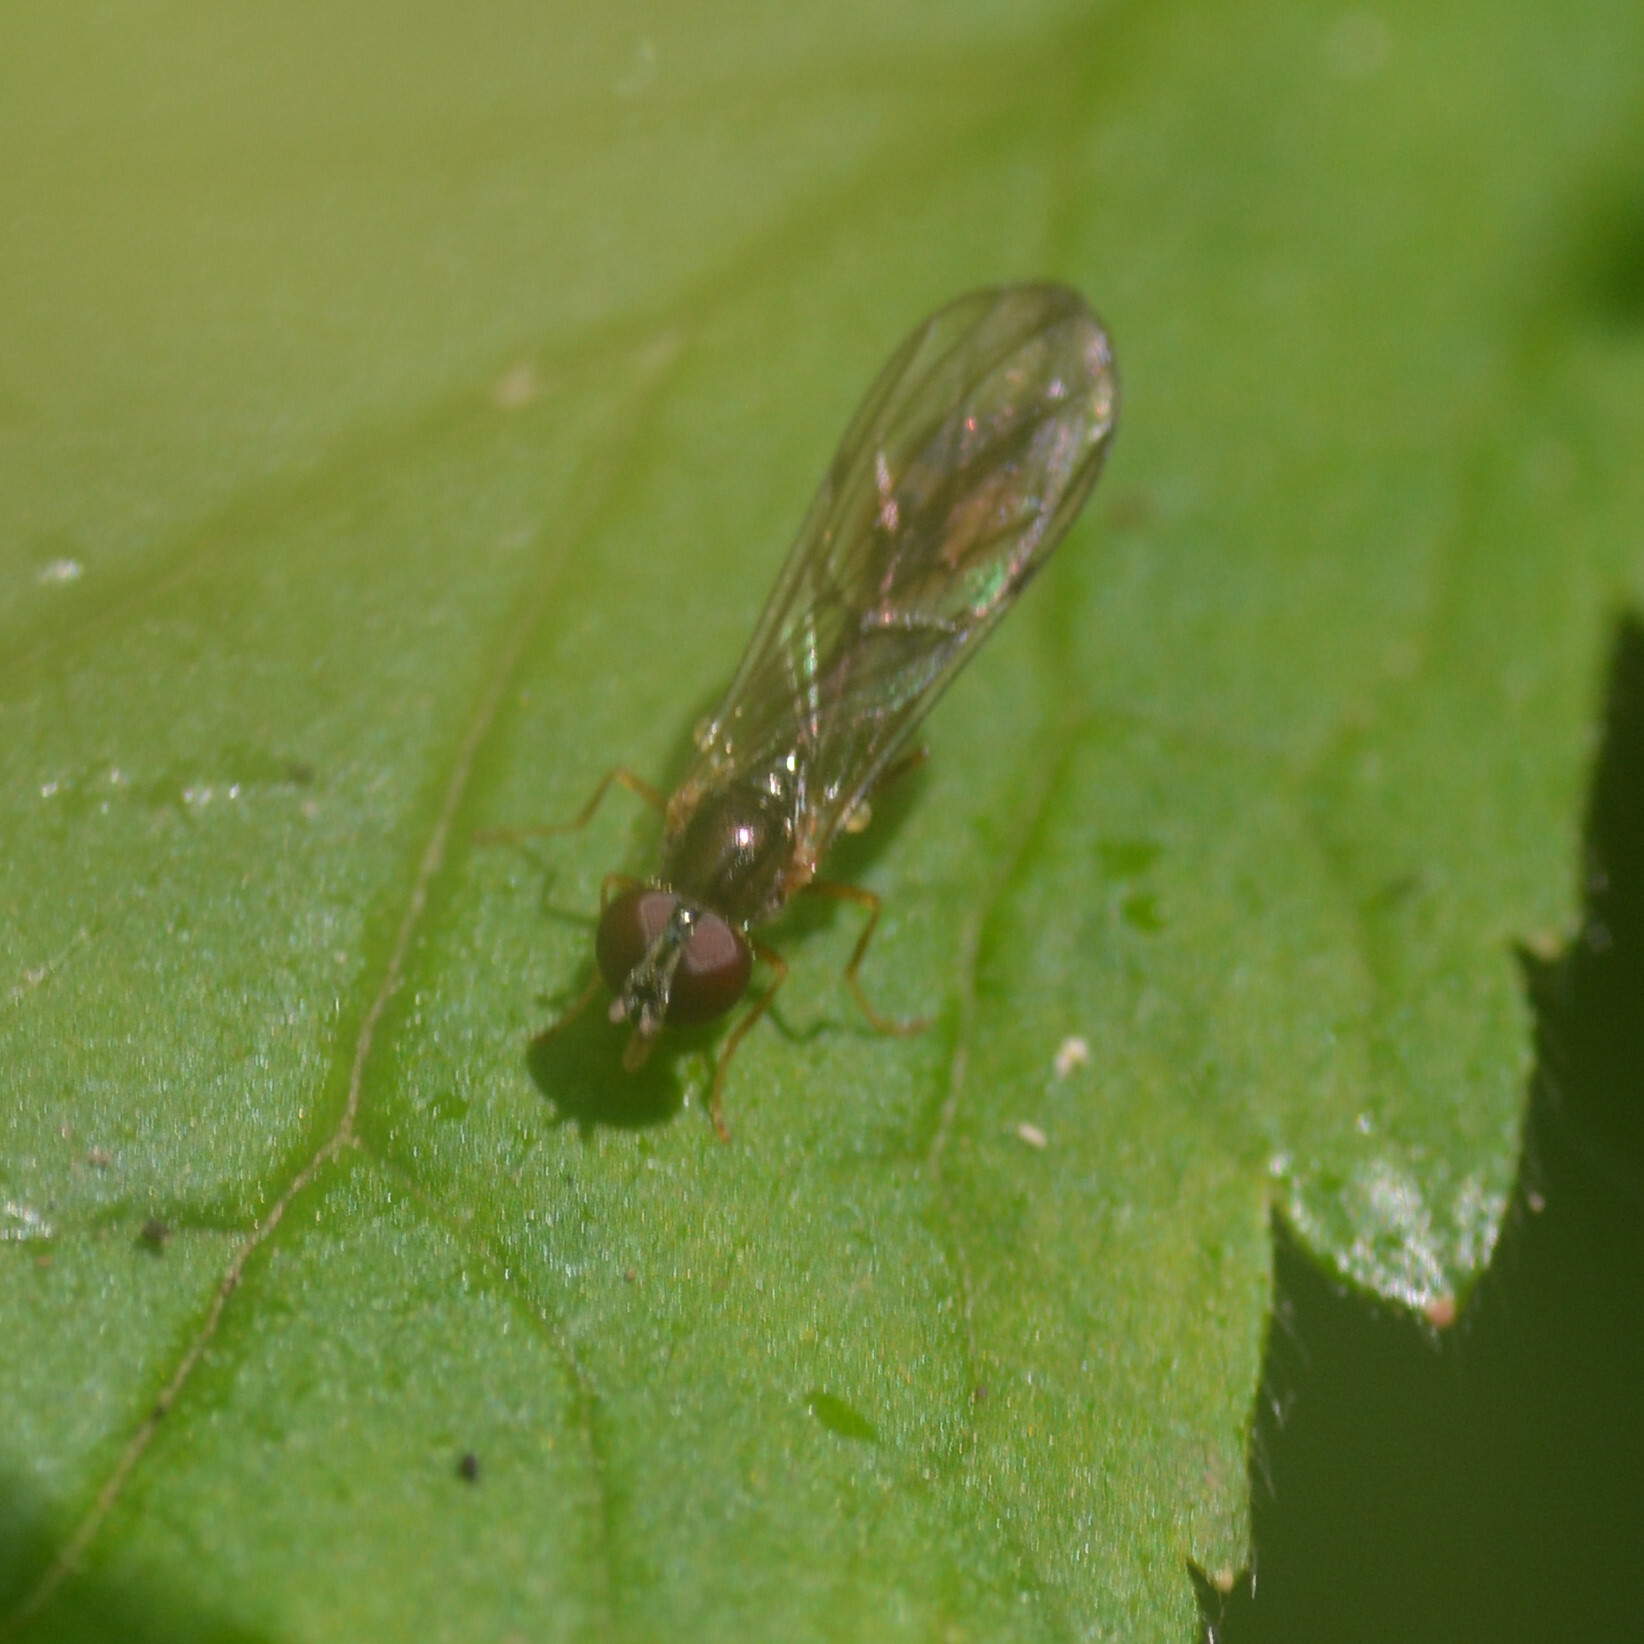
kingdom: Animalia
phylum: Arthropoda
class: Insecta
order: Diptera
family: Syrphidae
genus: Baccha
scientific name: Baccha elongata
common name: Common dainty
